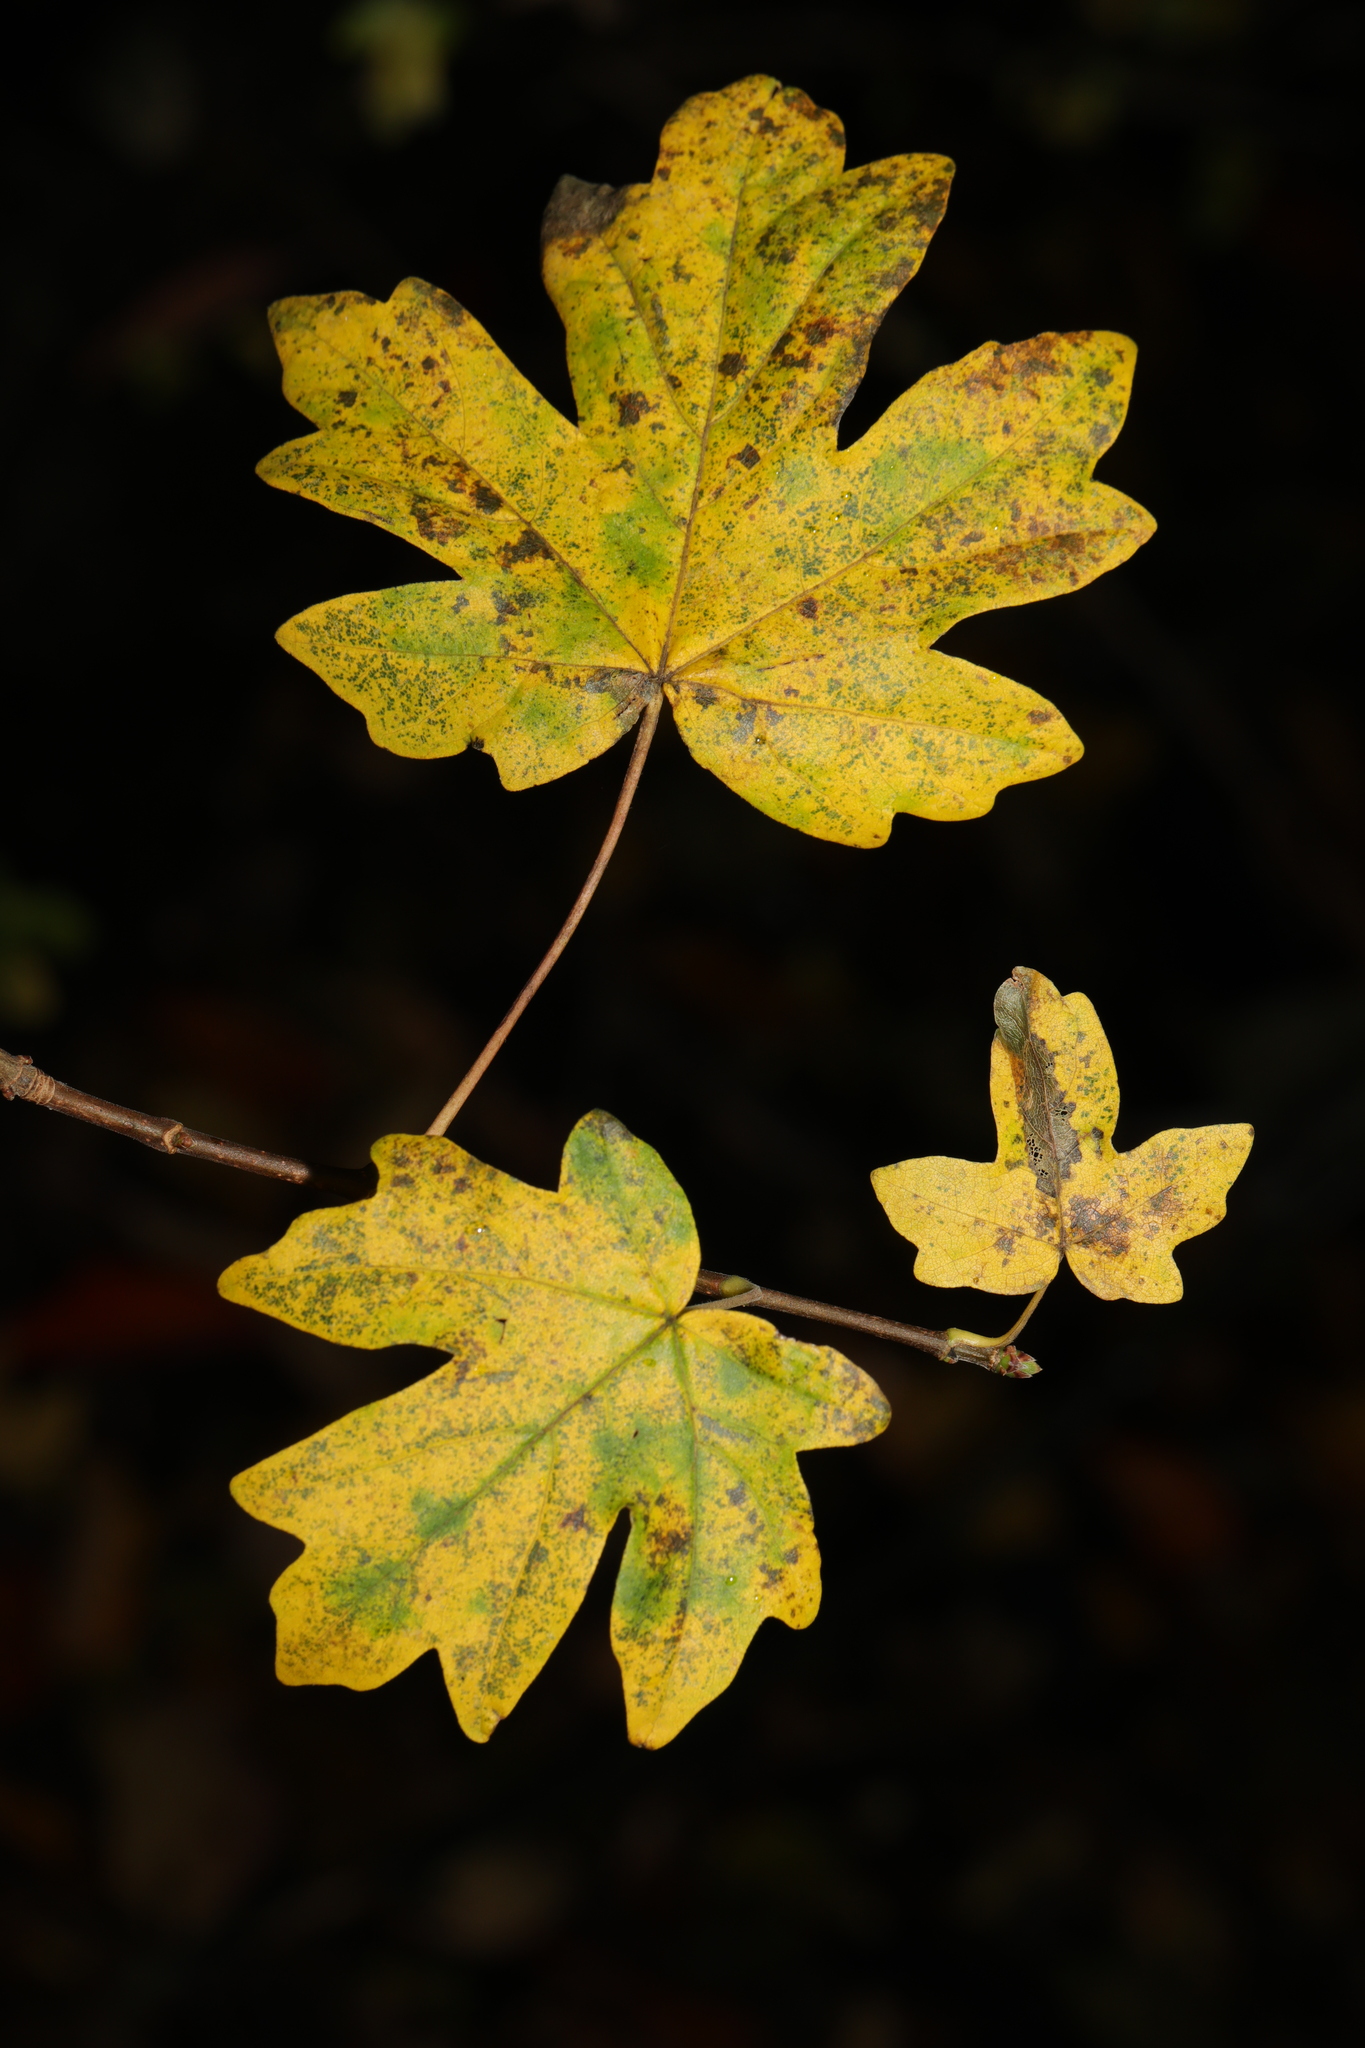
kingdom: Plantae
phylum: Tracheophyta
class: Magnoliopsida
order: Sapindales
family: Sapindaceae
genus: Acer
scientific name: Acer campestre
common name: Field maple
